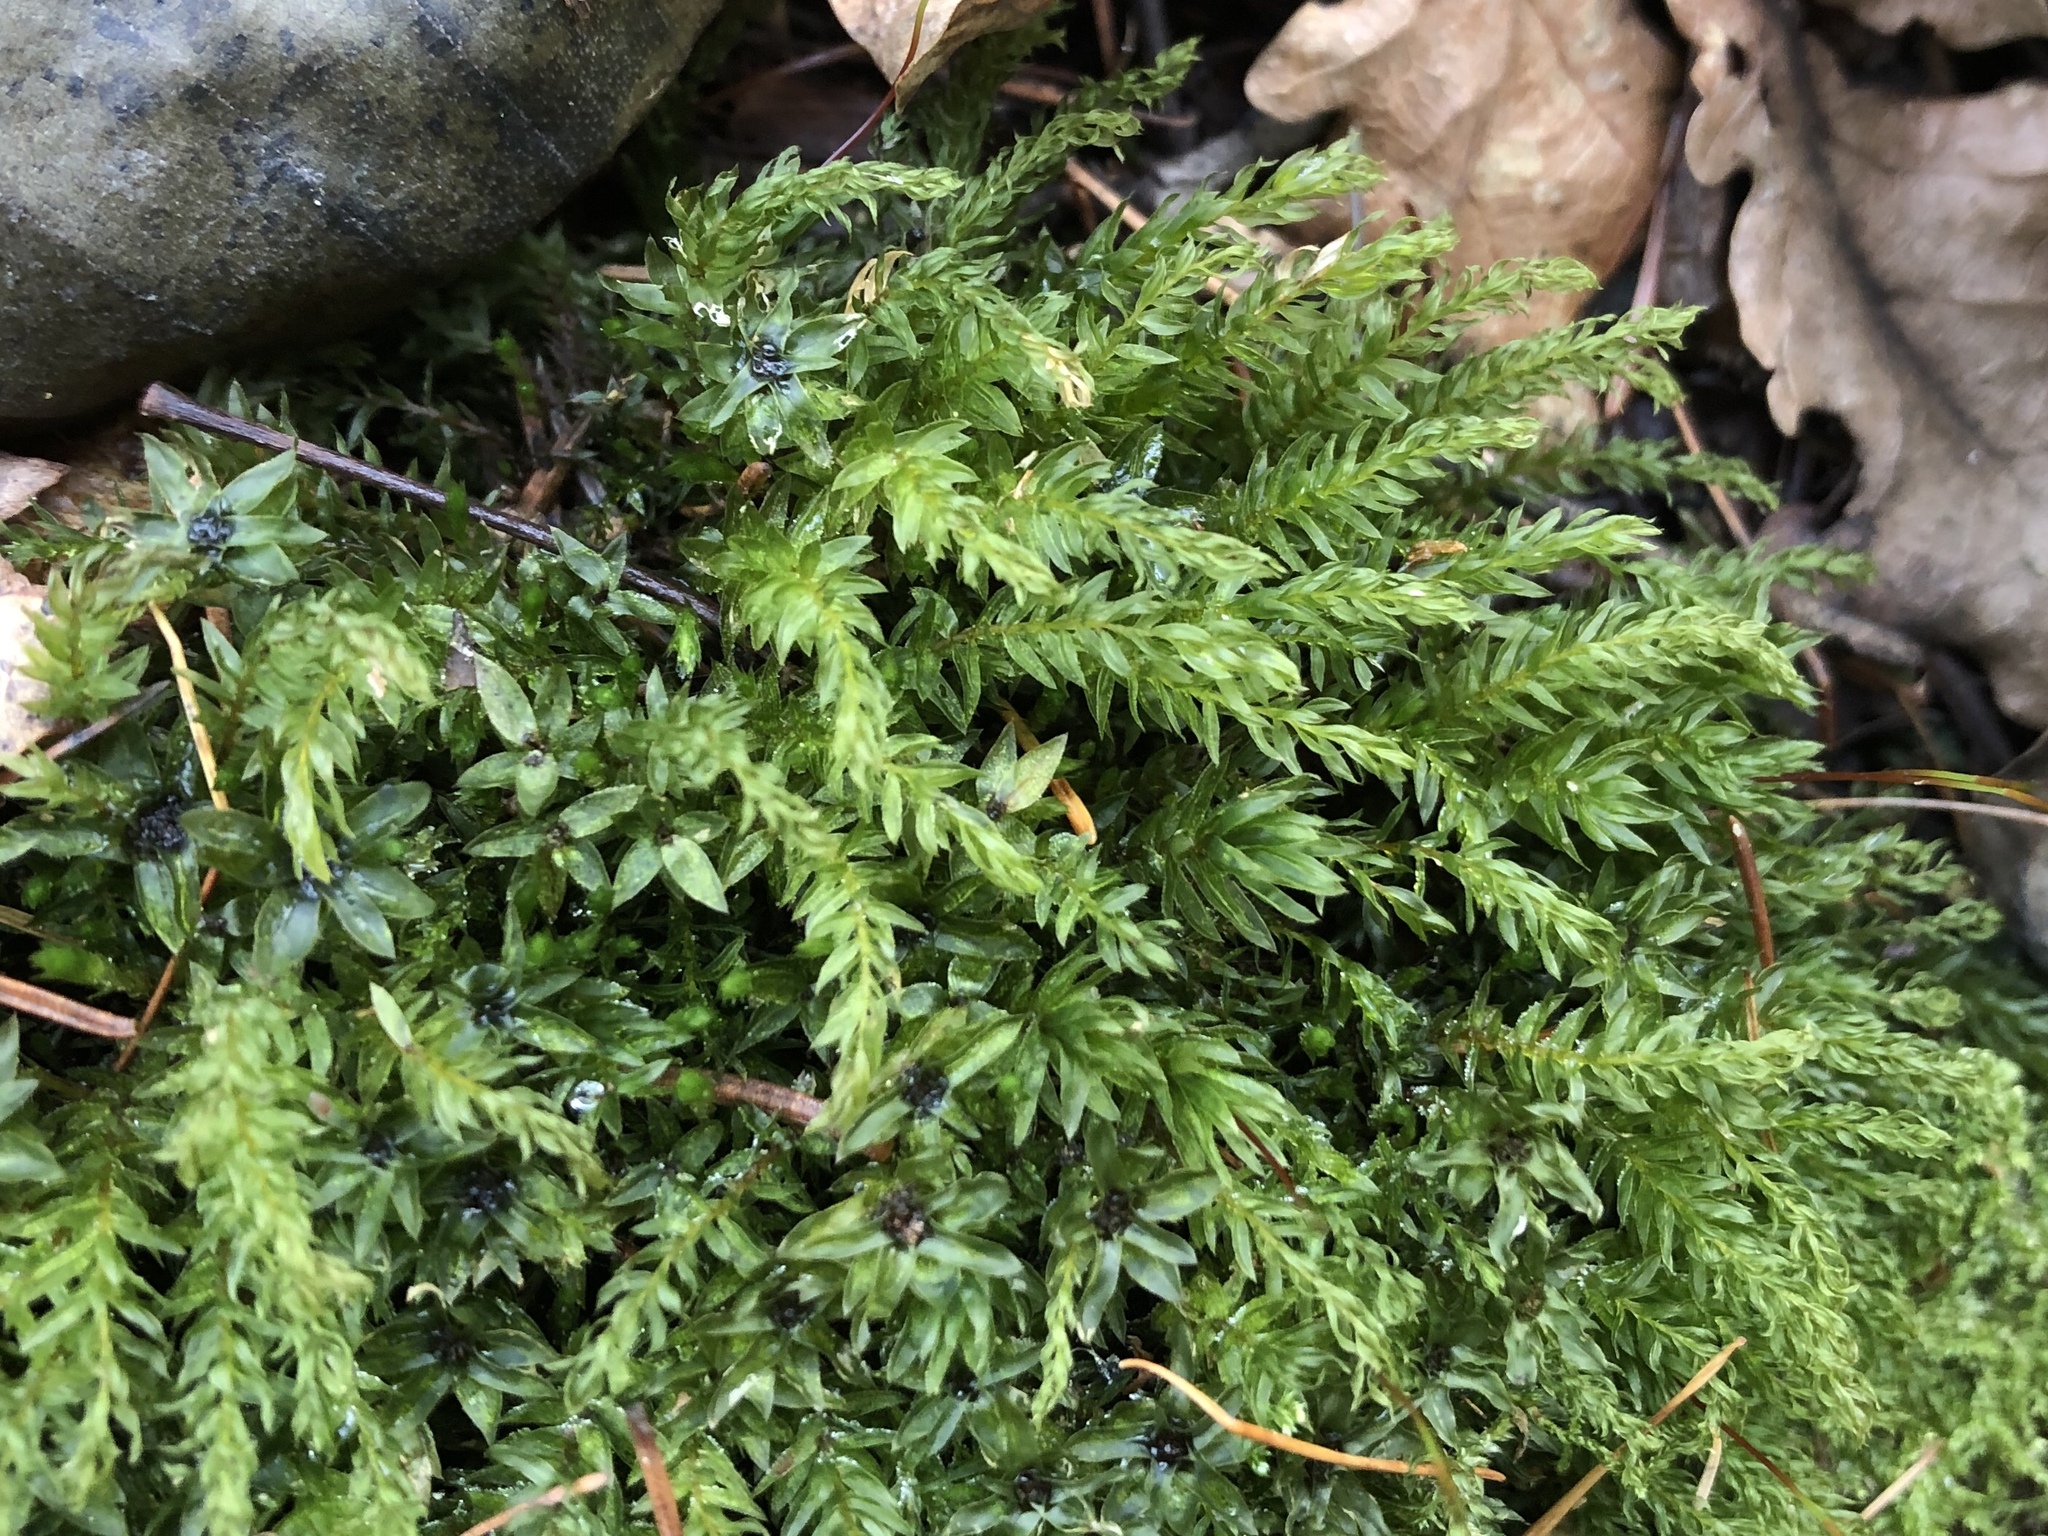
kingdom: Plantae
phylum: Bryophyta
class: Bryopsida
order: Bryales
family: Mniaceae
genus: Mnium
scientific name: Mnium hornum
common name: Swan's-neck leafy moss
